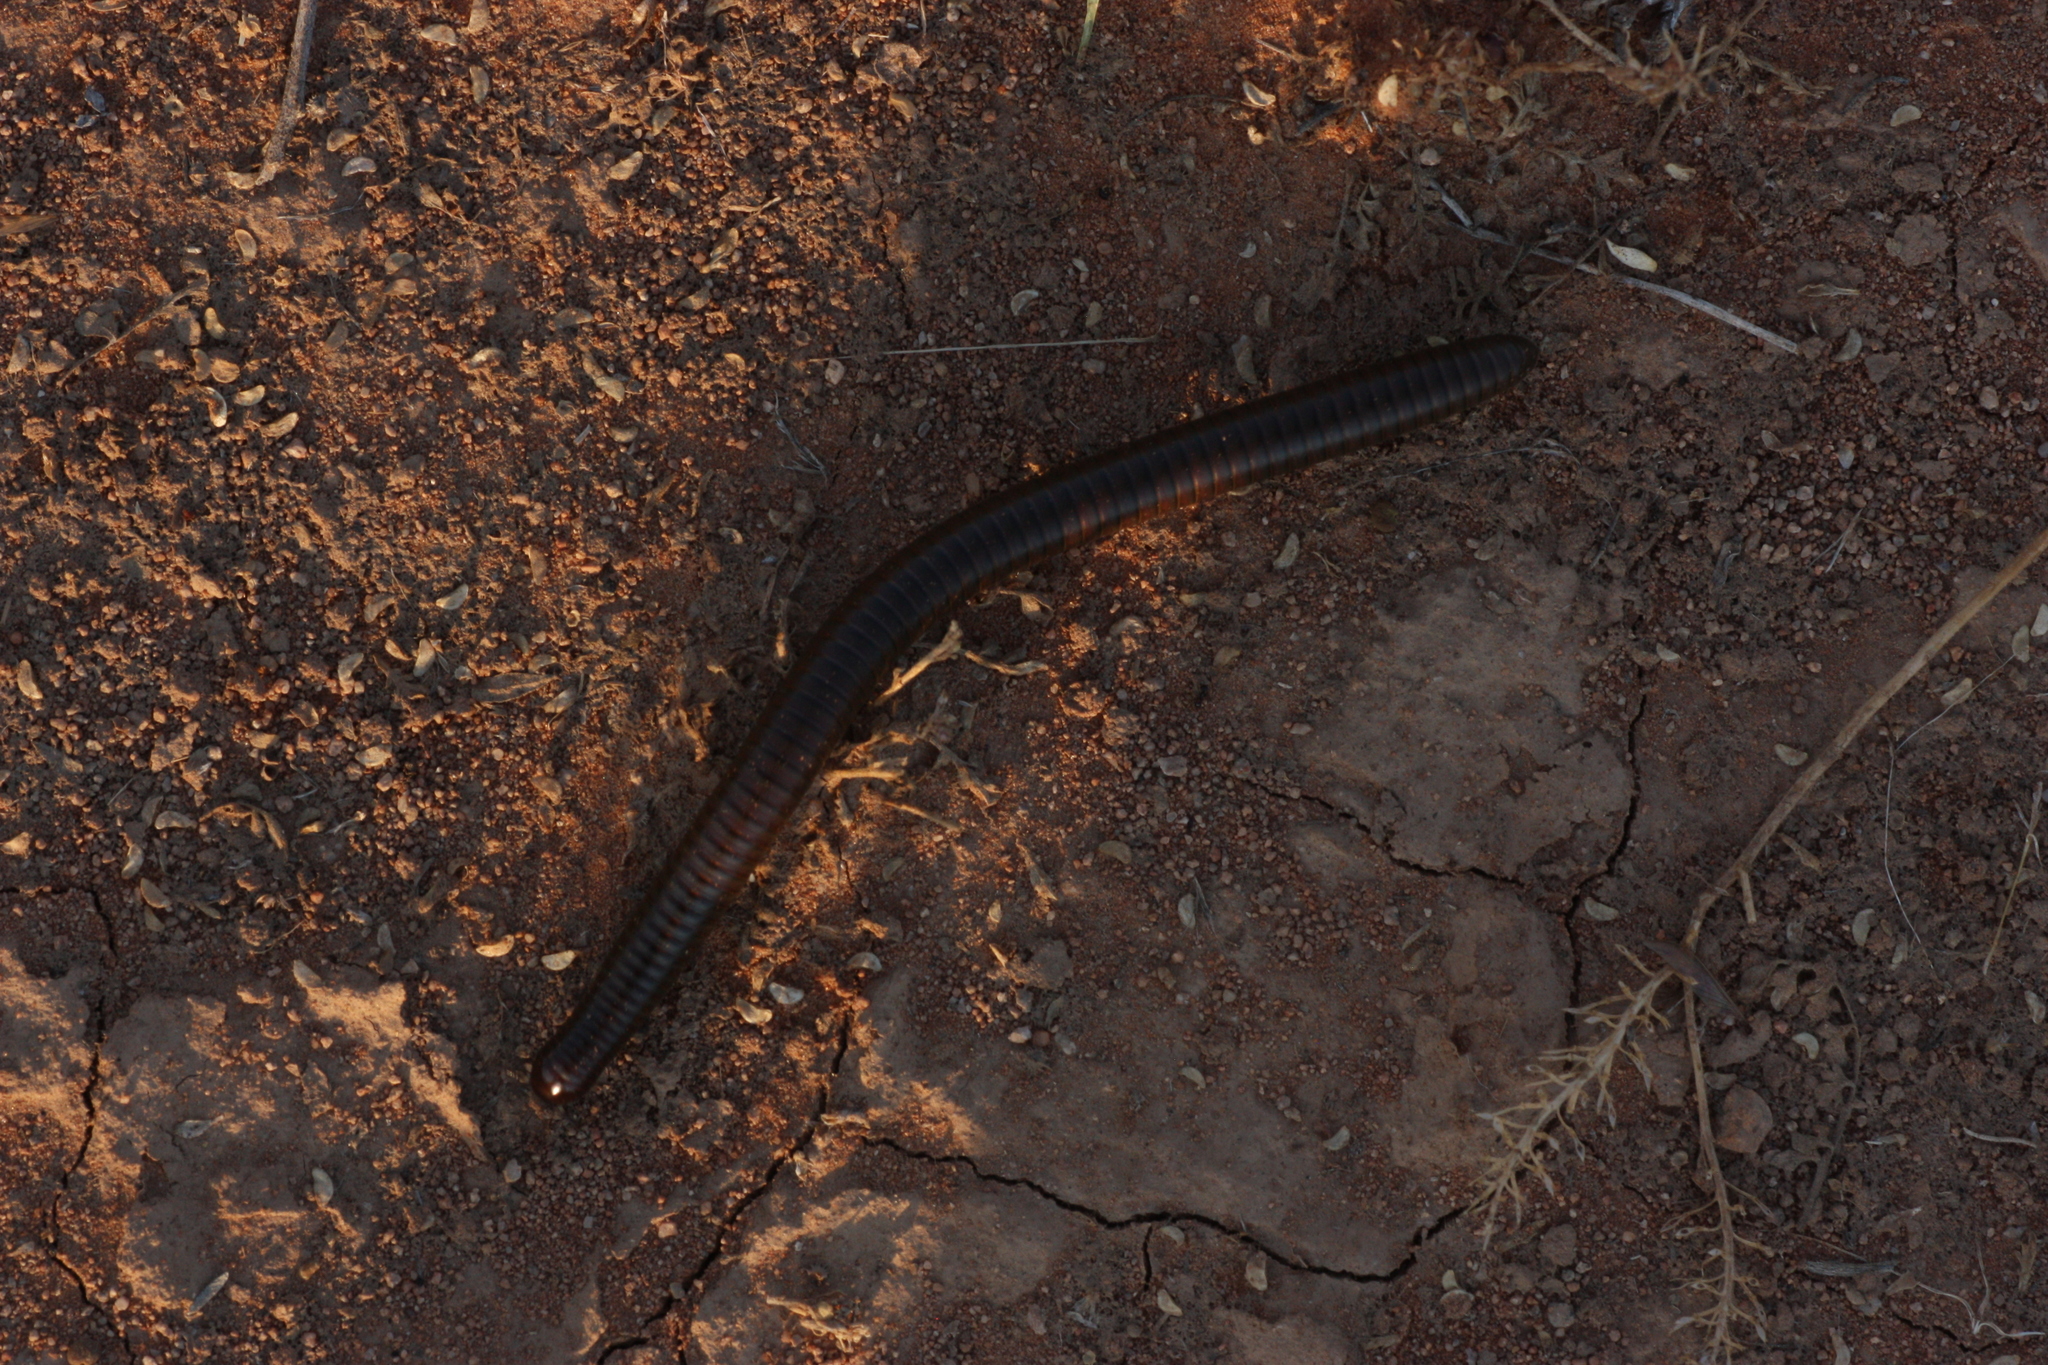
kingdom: Animalia
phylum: Arthropoda
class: Diplopoda
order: Spirostreptida
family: Spirostreptidae
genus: Orthoporus
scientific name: Orthoporus ornatus
